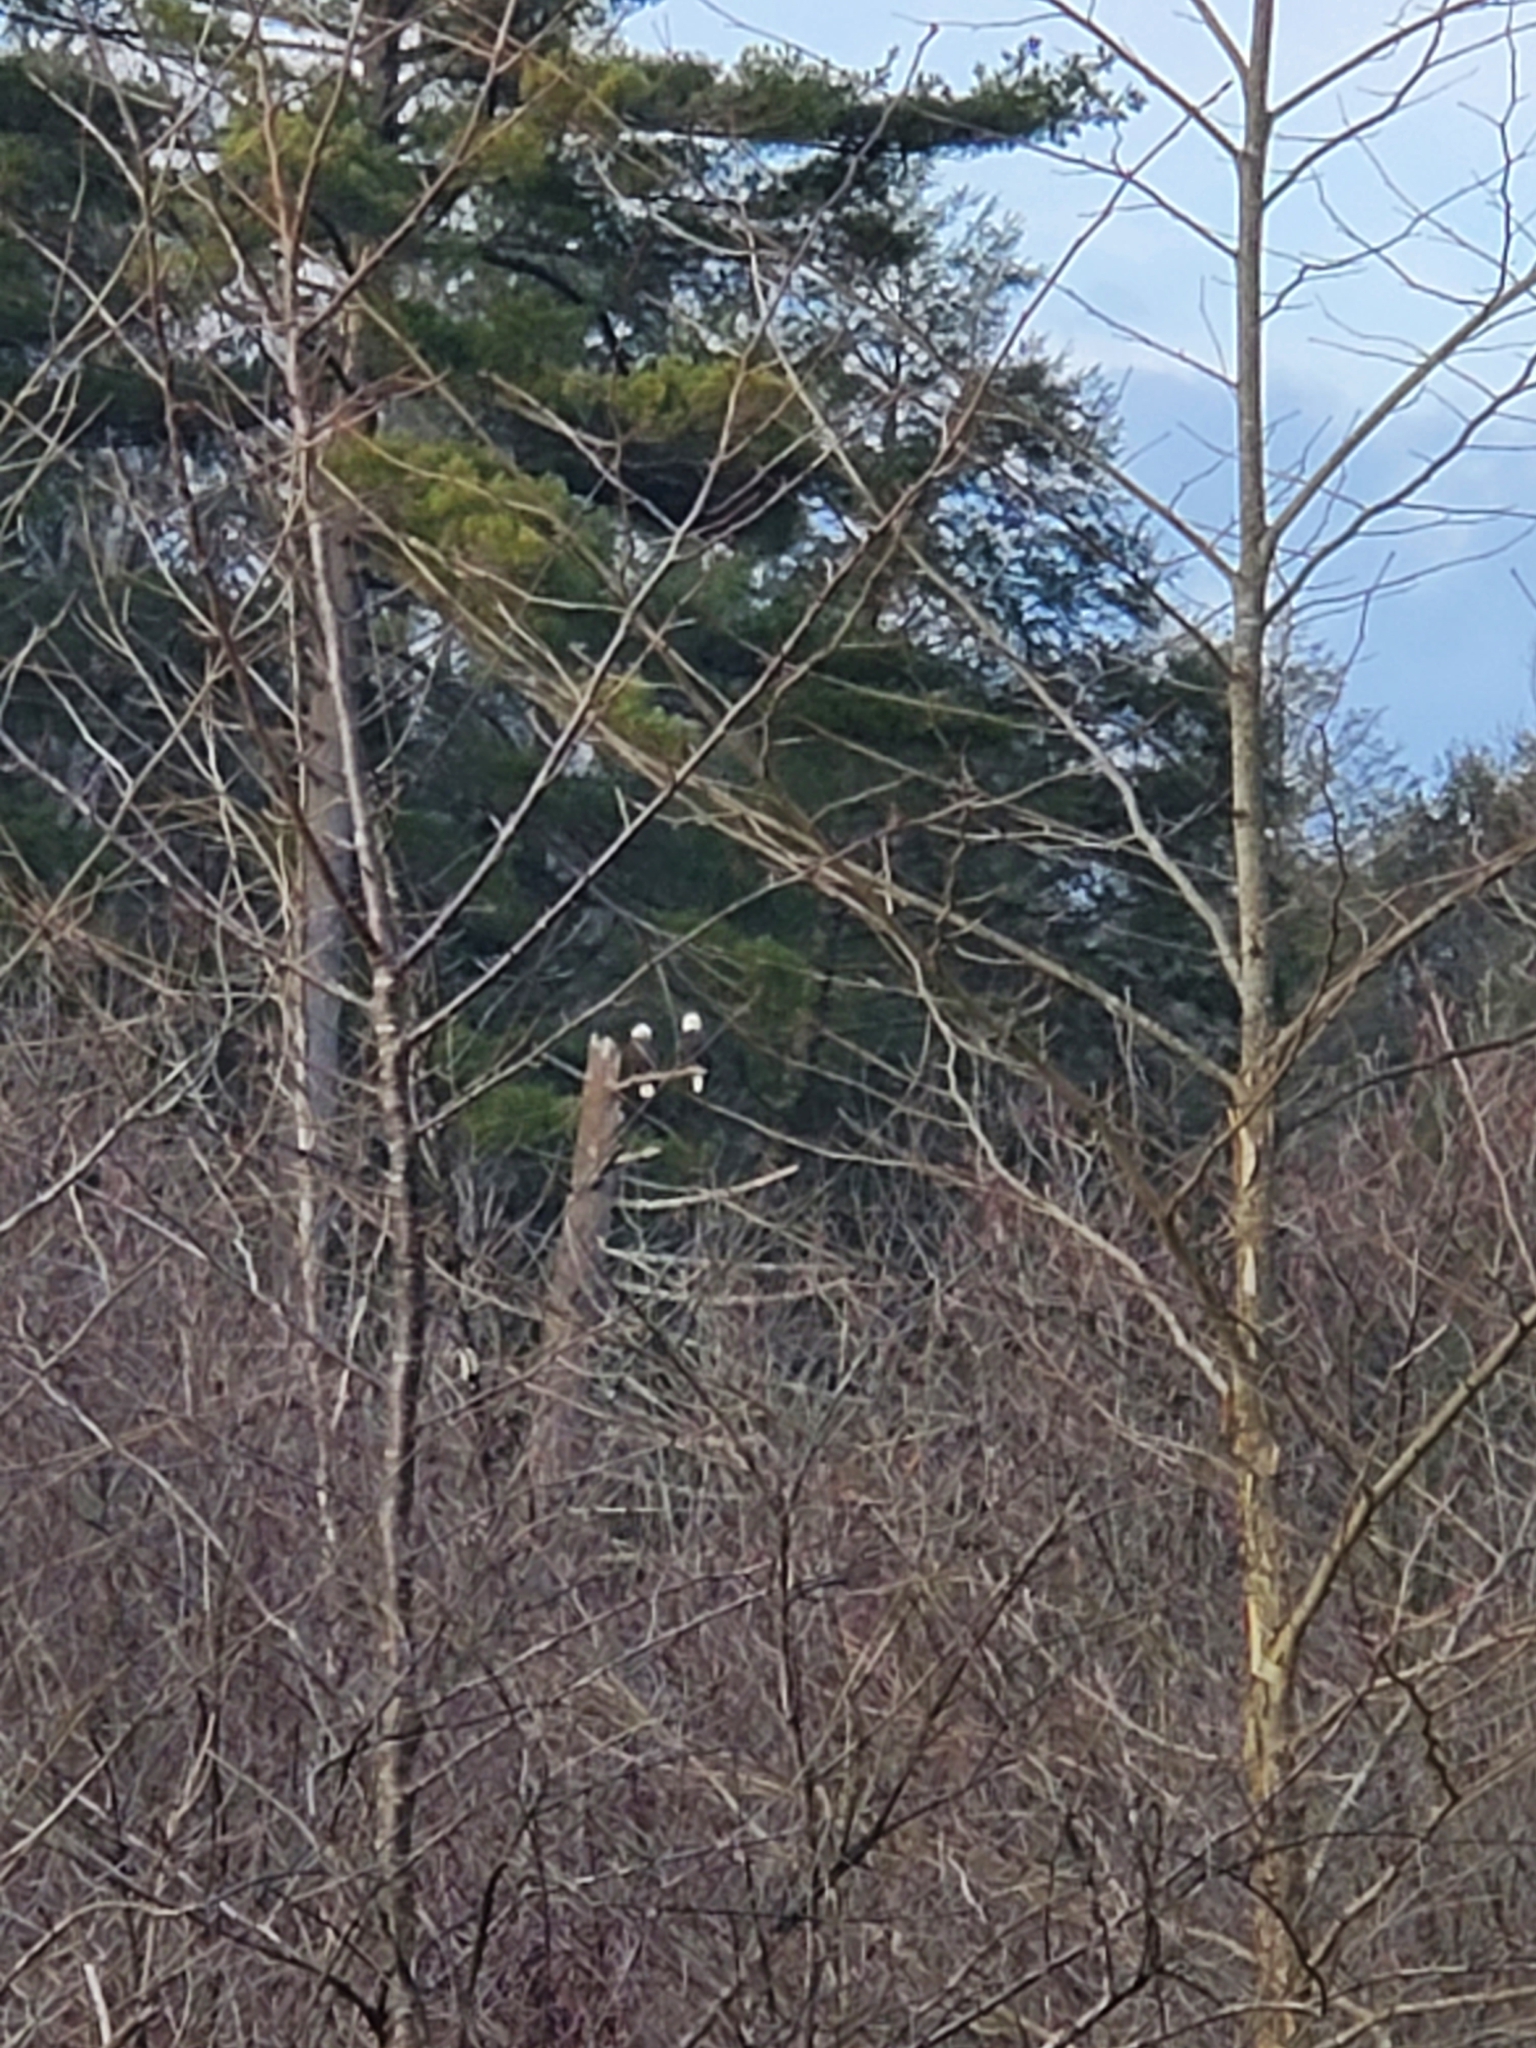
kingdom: Animalia
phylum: Chordata
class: Aves
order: Accipitriformes
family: Accipitridae
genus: Haliaeetus
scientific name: Haliaeetus leucocephalus
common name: Bald eagle
